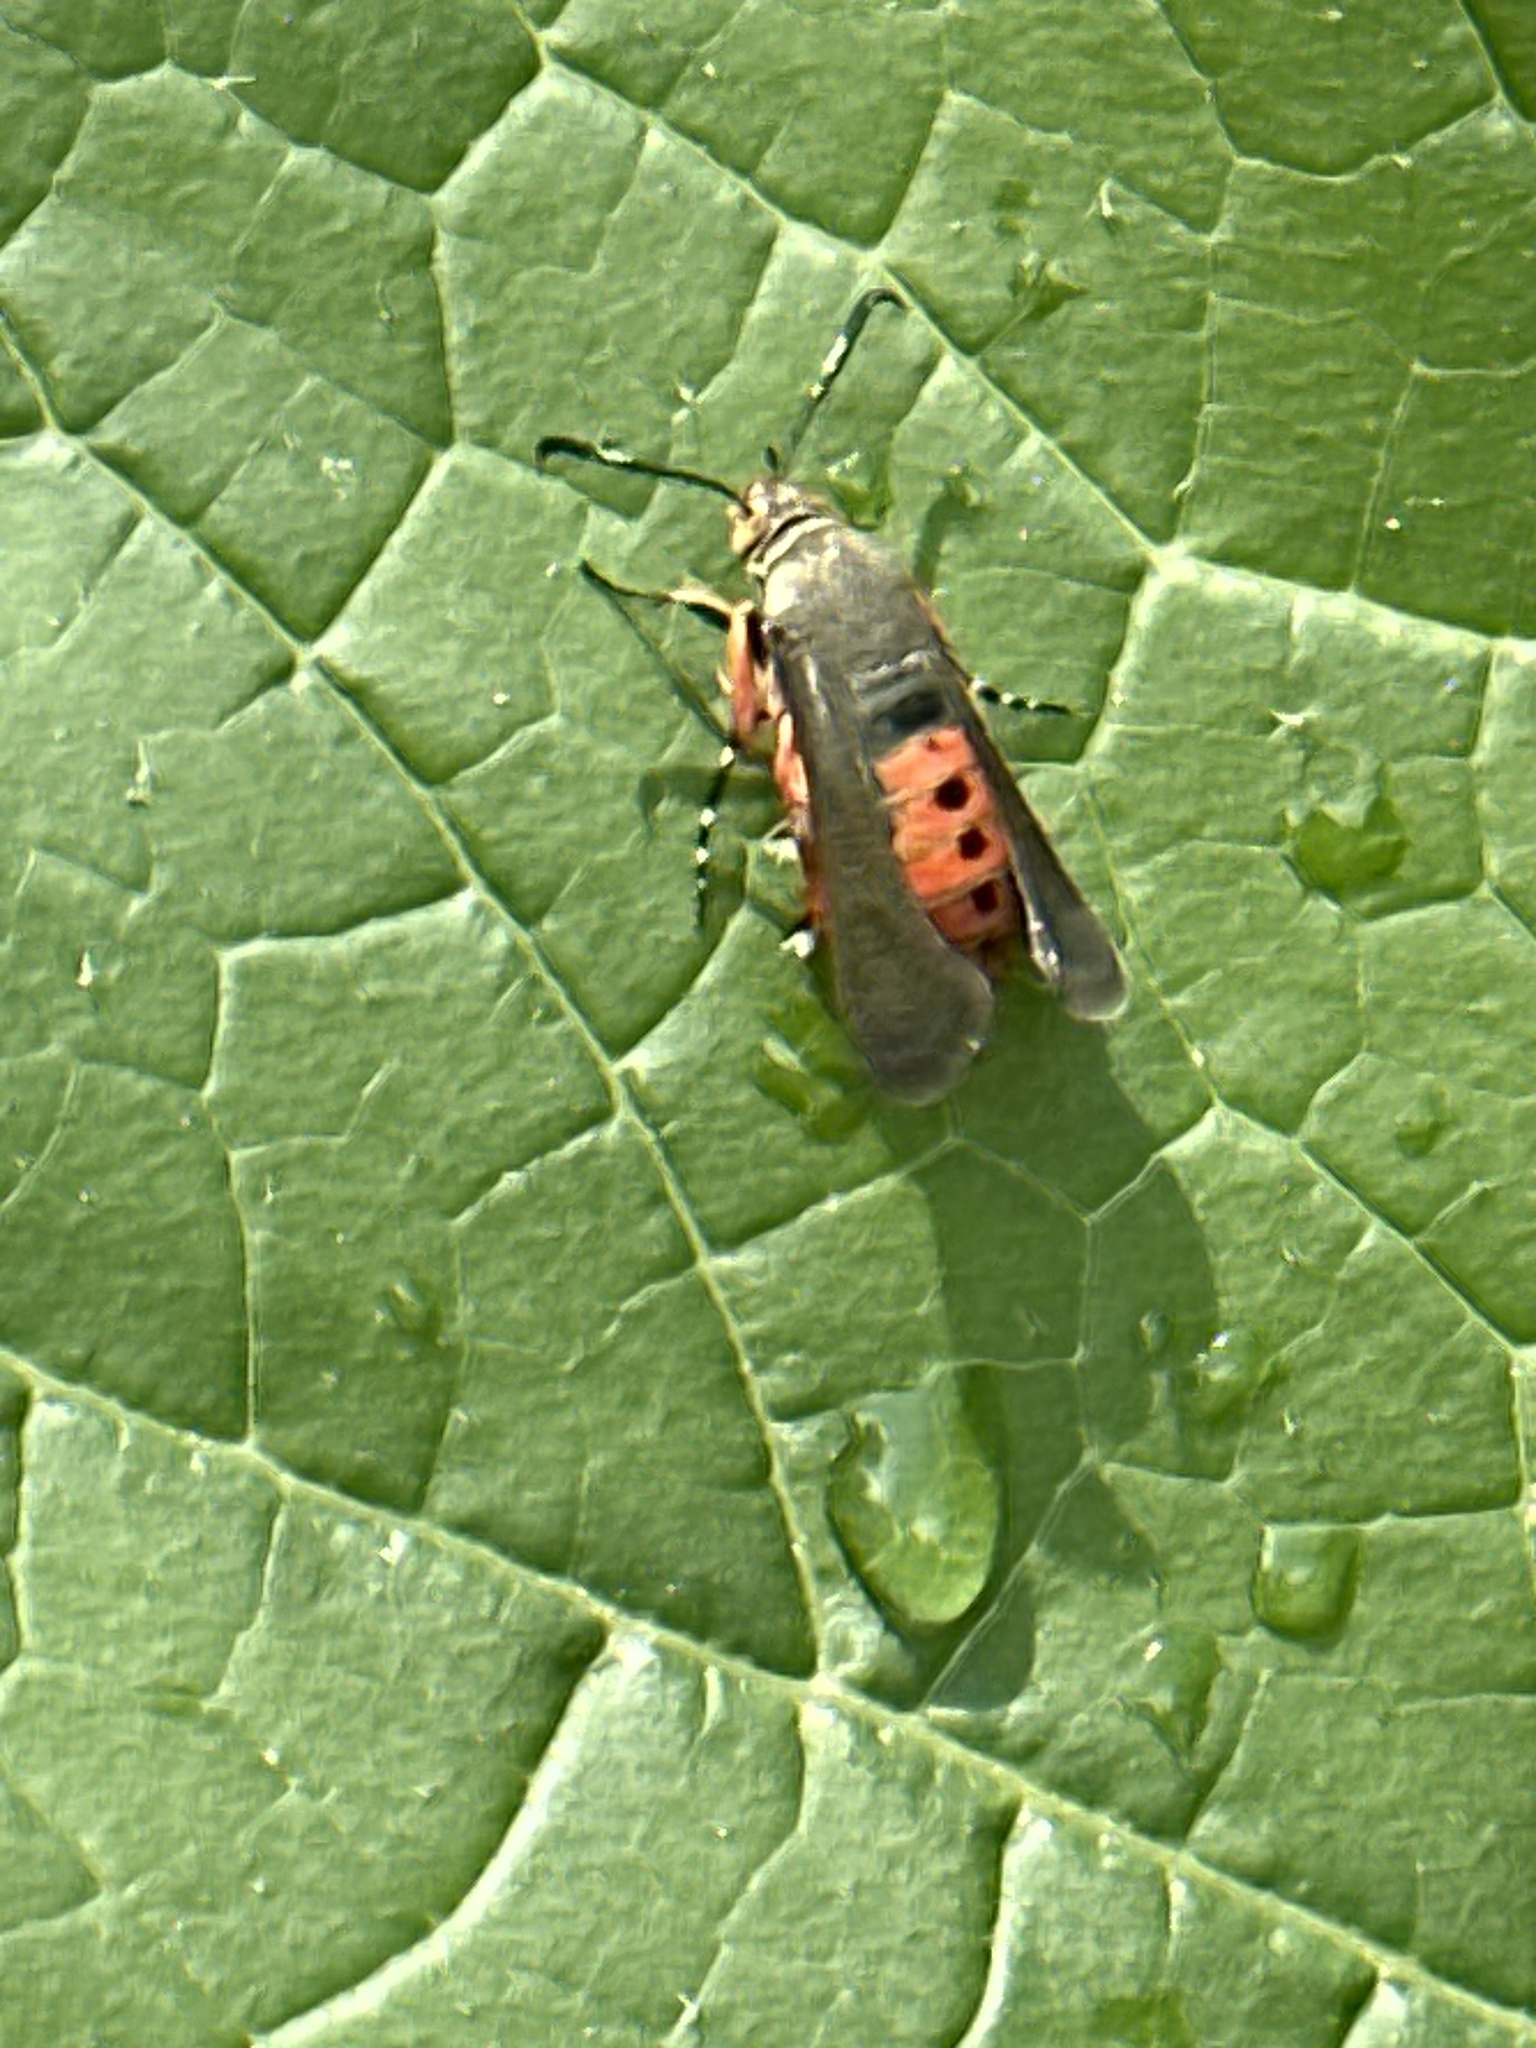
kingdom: Animalia
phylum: Arthropoda
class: Insecta
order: Lepidoptera
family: Sesiidae
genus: Eichlinia
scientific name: Eichlinia cucurbitae
